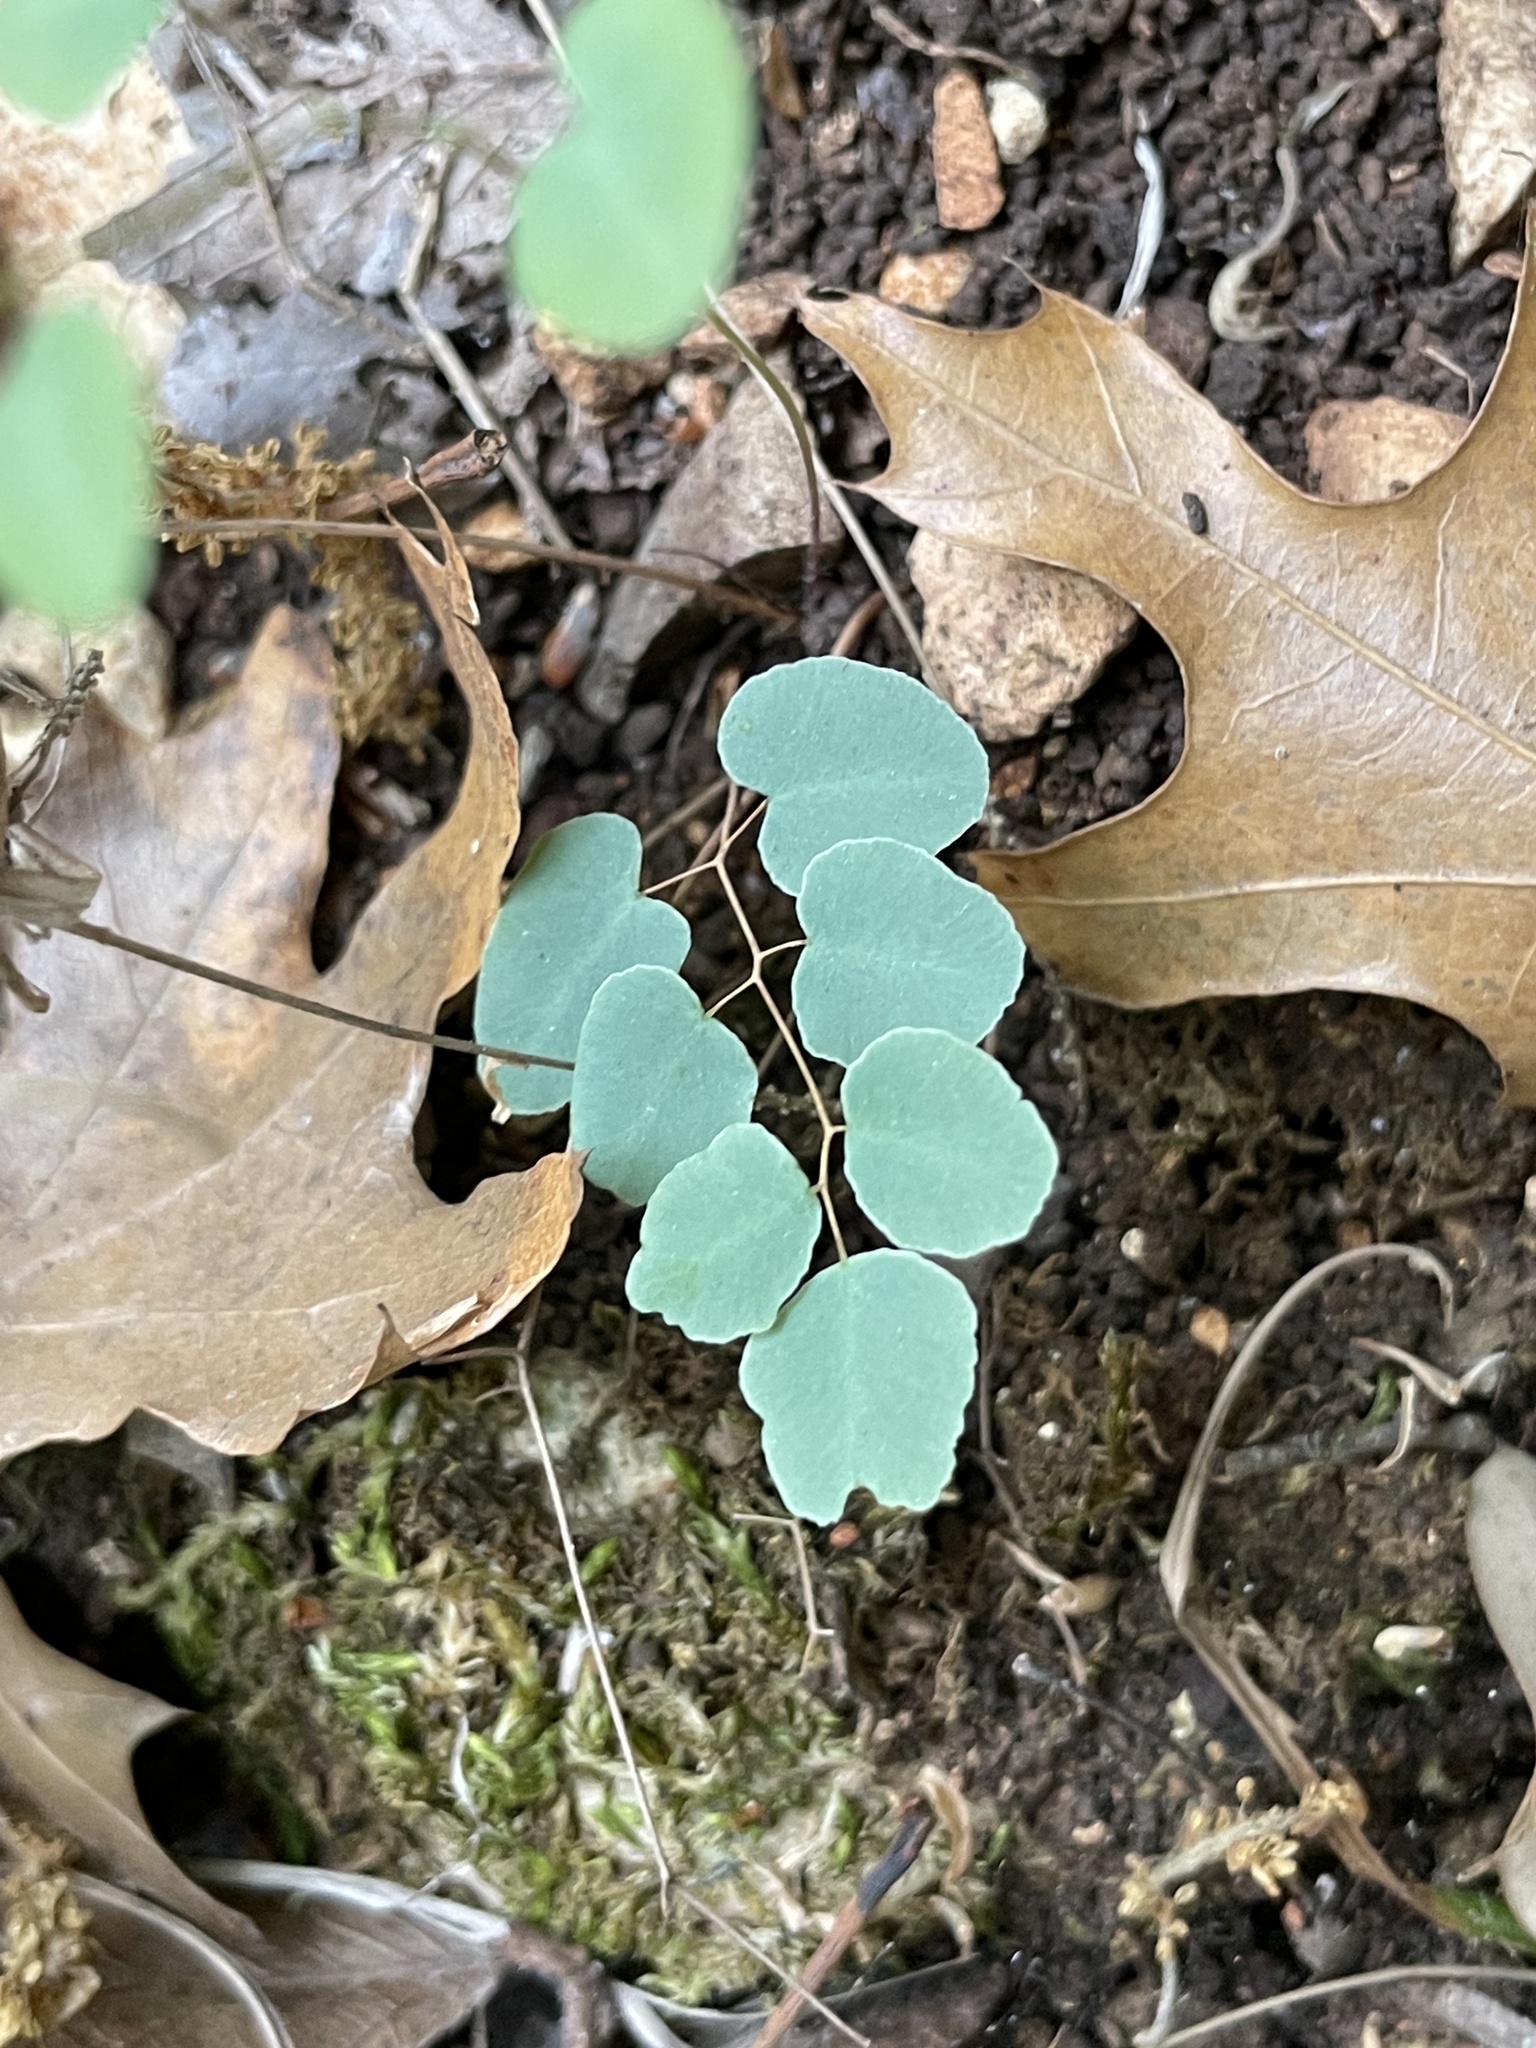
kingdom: Plantae
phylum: Tracheophyta
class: Polypodiopsida
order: Polypodiales
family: Pteridaceae
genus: Pellaea
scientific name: Pellaea ovata
